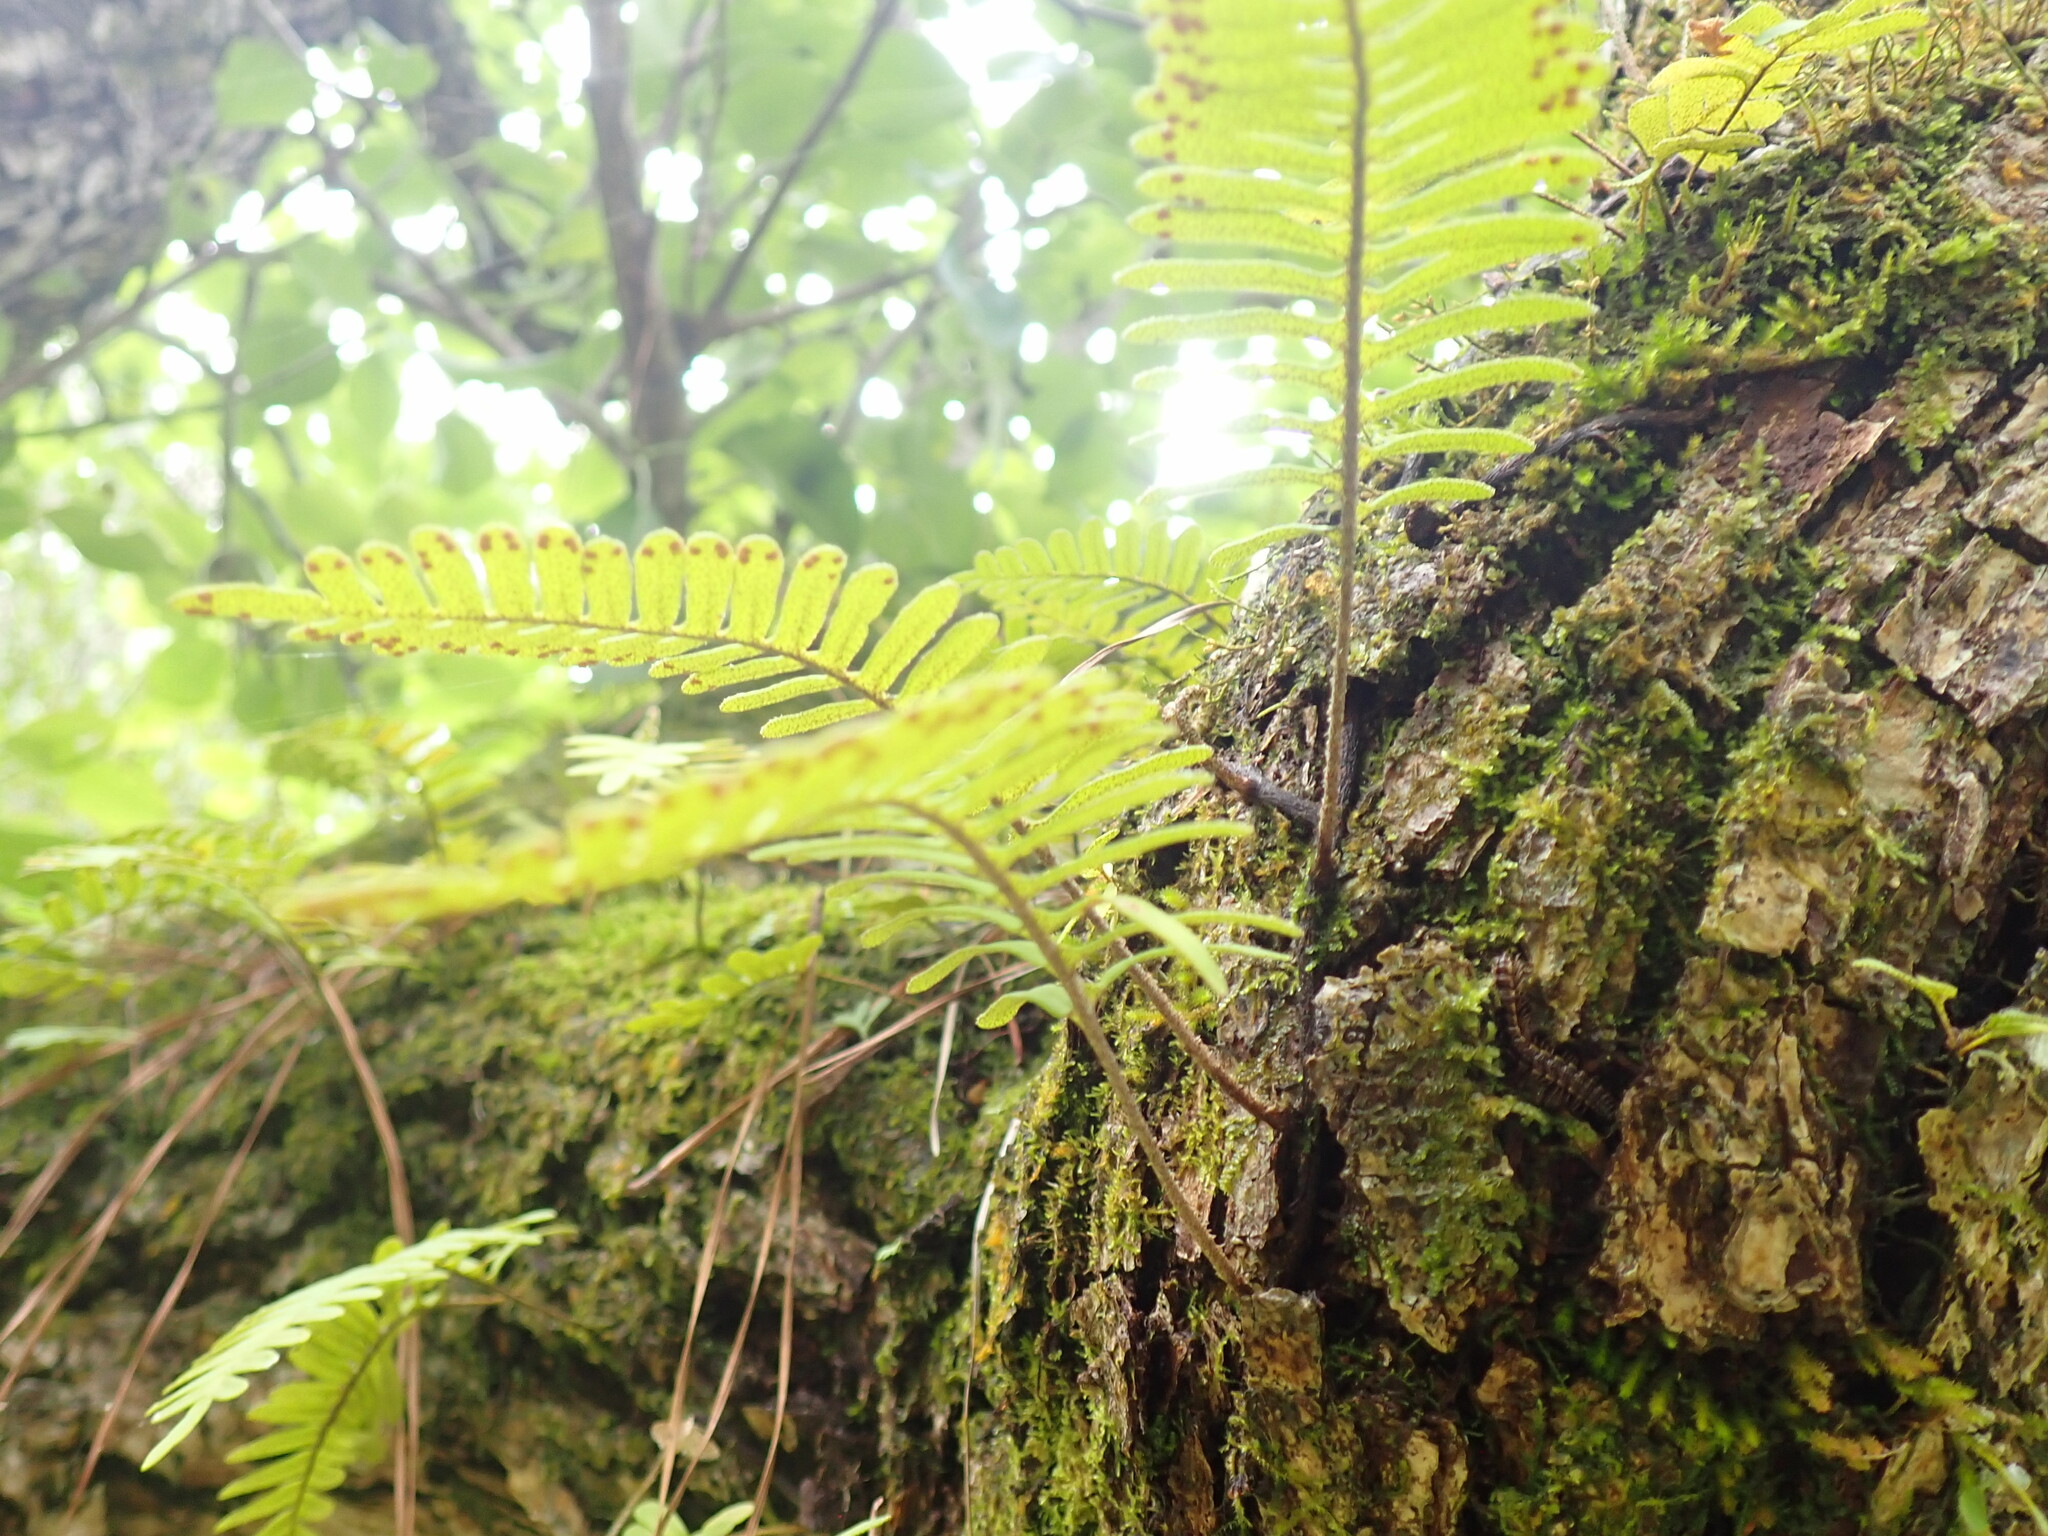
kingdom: Plantae
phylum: Tracheophyta
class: Polypodiopsida
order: Polypodiales
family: Polypodiaceae
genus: Pleopeltis
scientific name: Pleopeltis michauxiana
